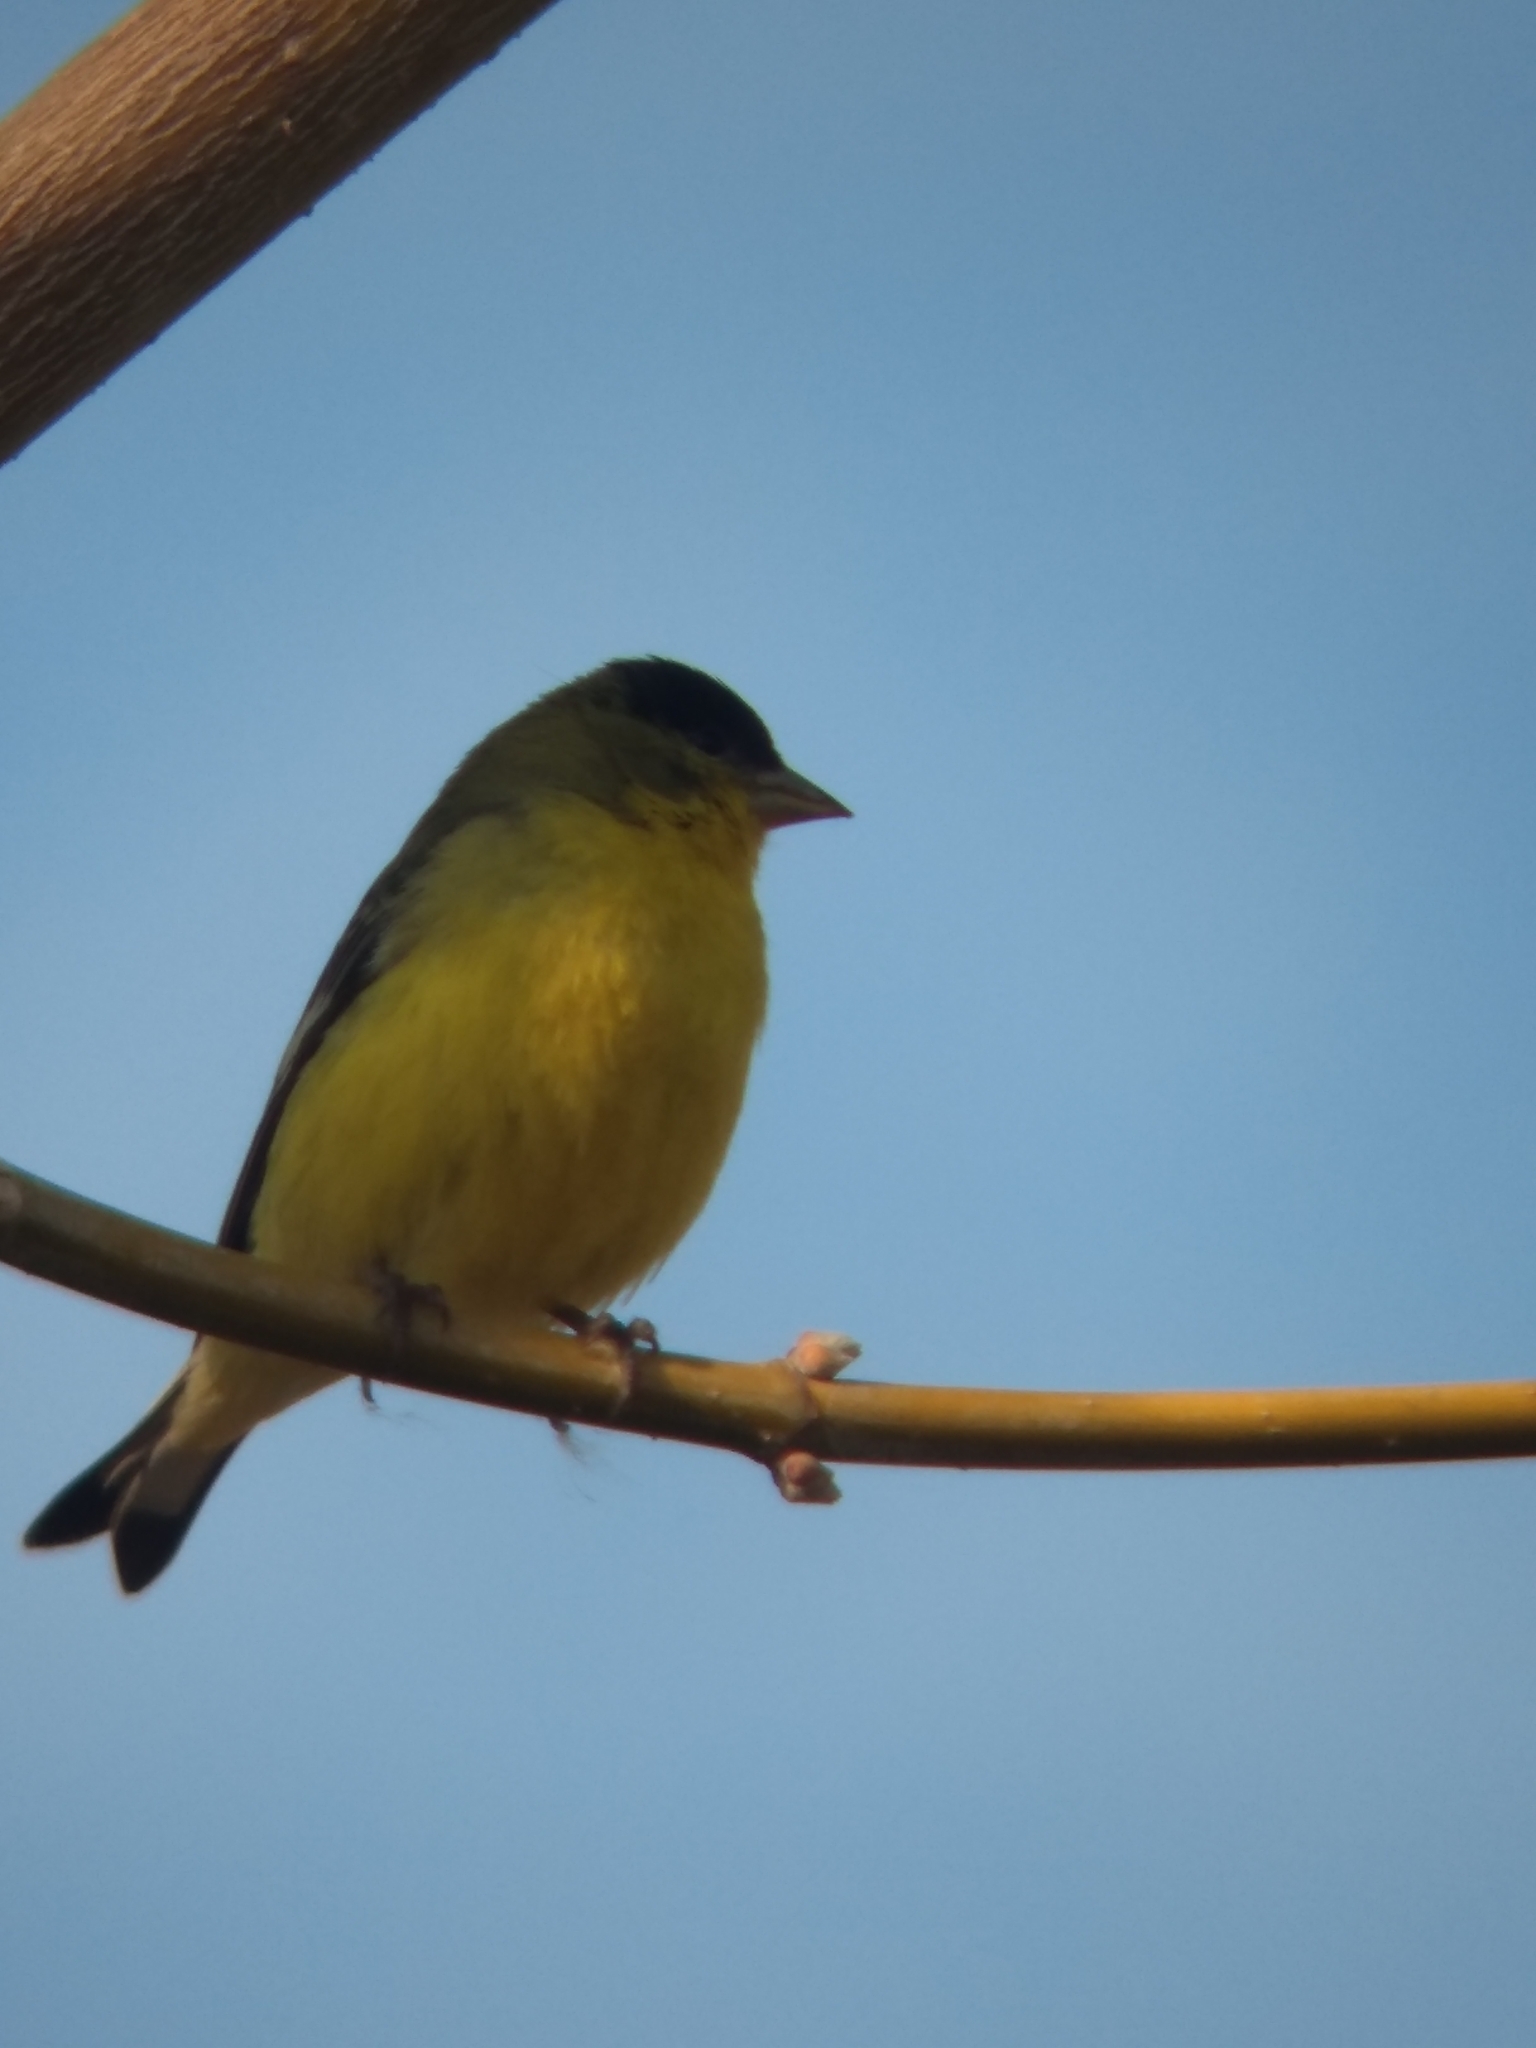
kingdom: Animalia
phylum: Chordata
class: Aves
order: Passeriformes
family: Fringillidae
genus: Spinus
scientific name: Spinus psaltria
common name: Lesser goldfinch
